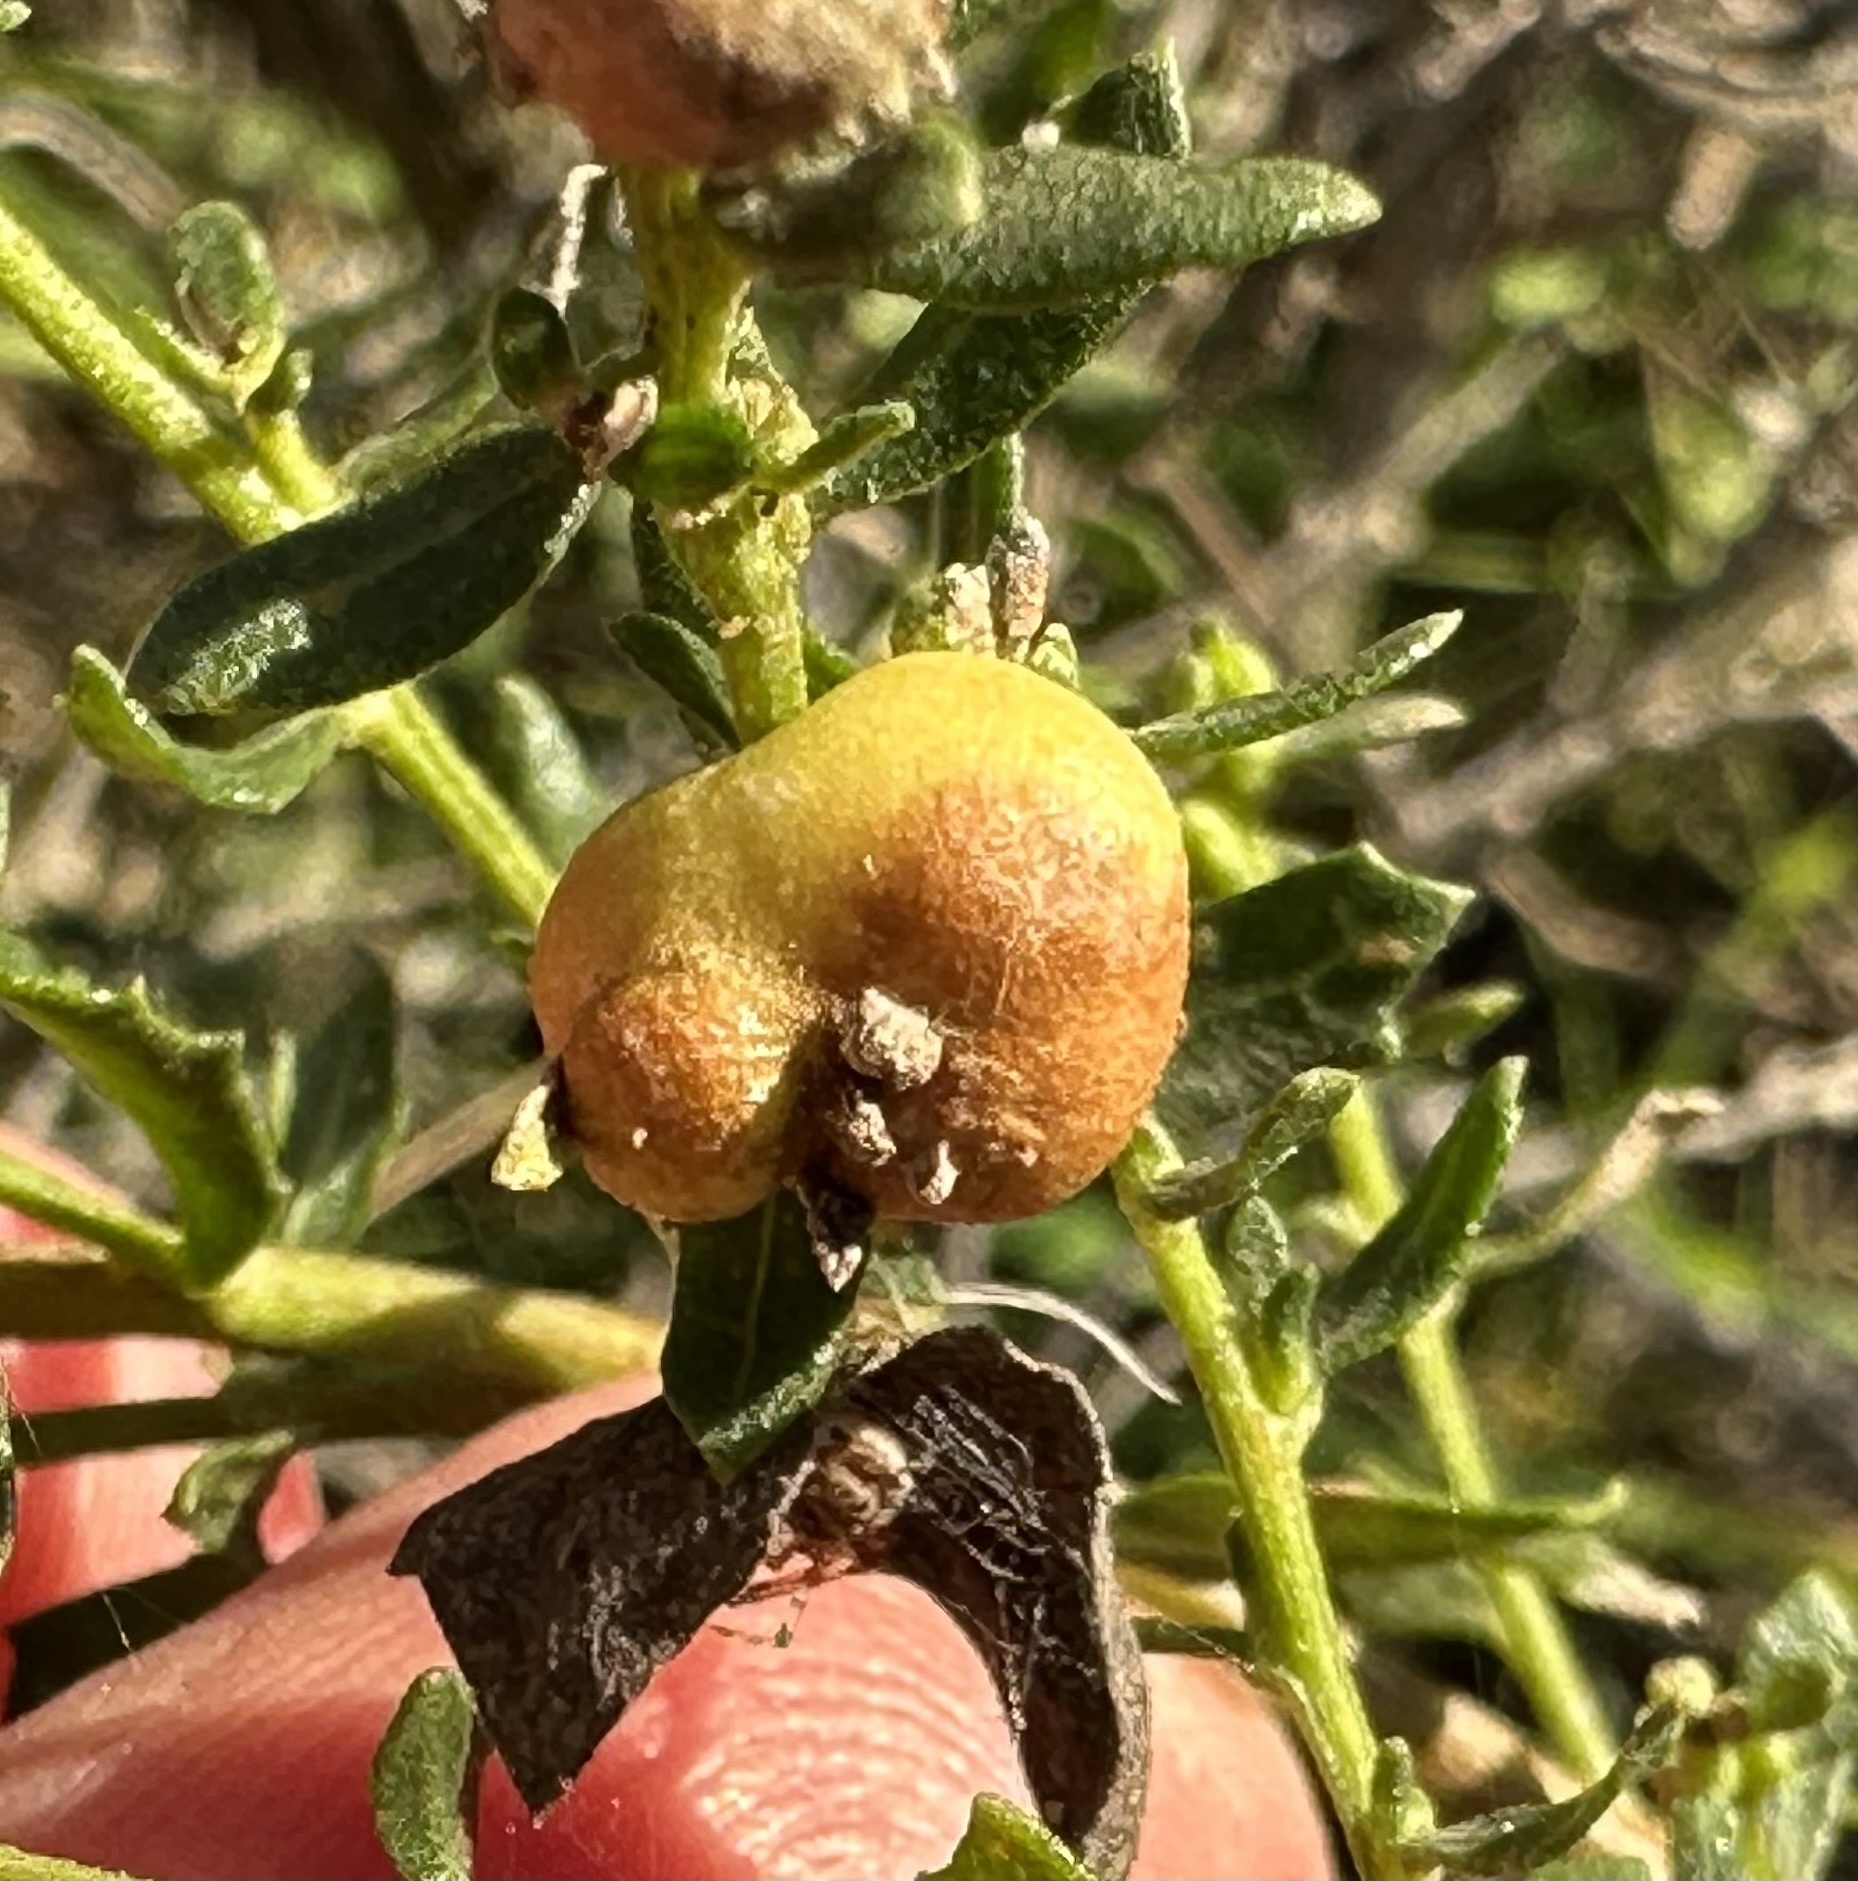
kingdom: Animalia
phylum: Arthropoda
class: Insecta
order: Diptera
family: Cecidomyiidae
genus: Rhopalomyia
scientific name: Rhopalomyia californica
